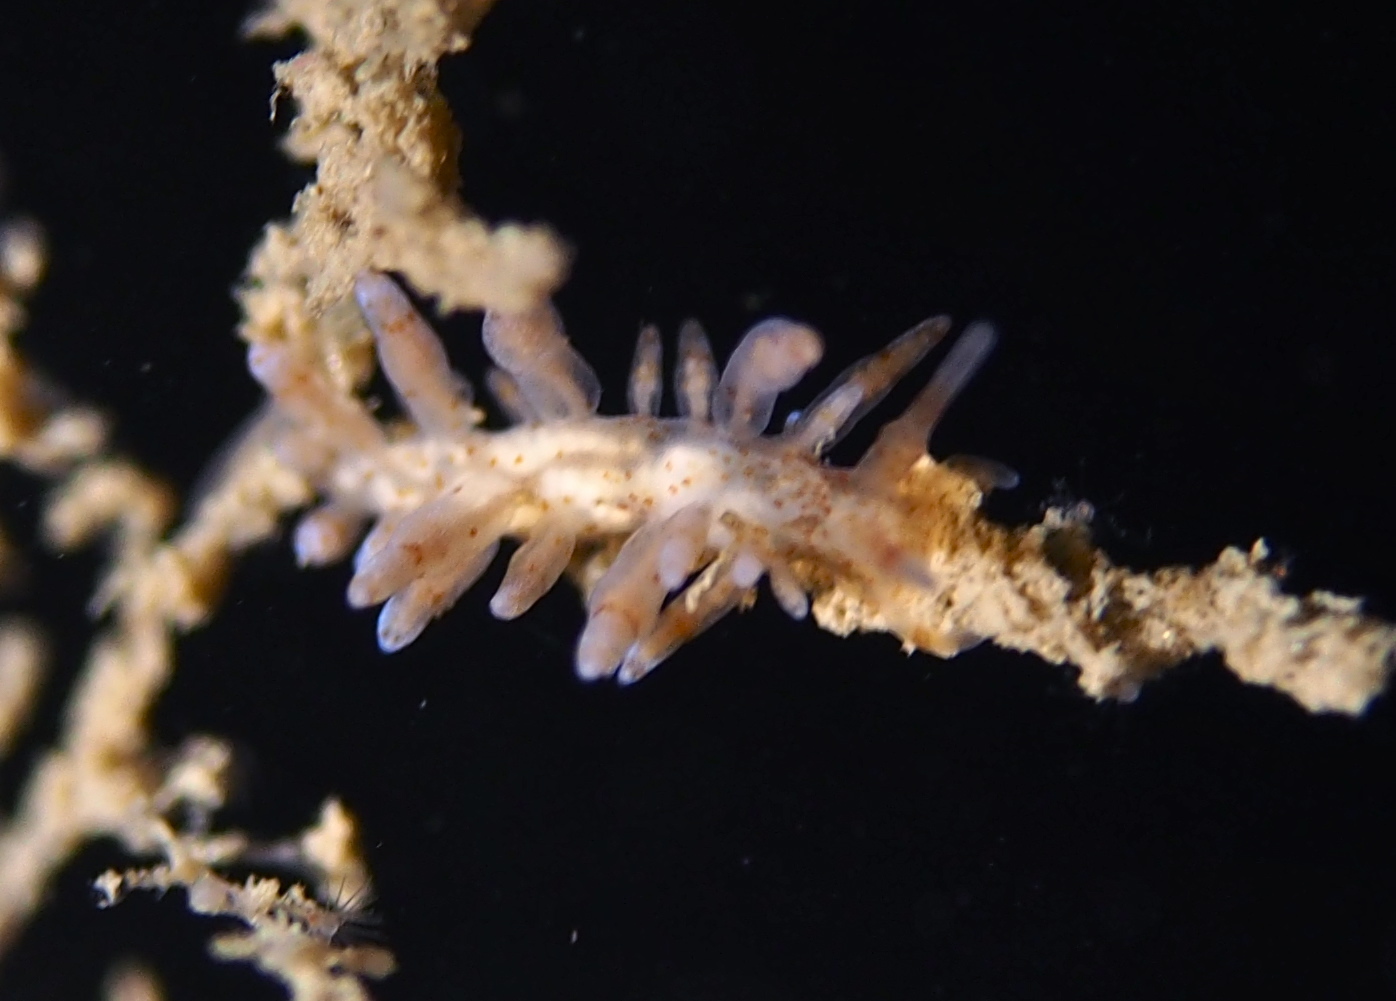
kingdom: Animalia
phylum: Mollusca
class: Gastropoda
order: Nudibranchia
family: Eubranchidae
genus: Eubranchus
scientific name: Eubranchus rupium
